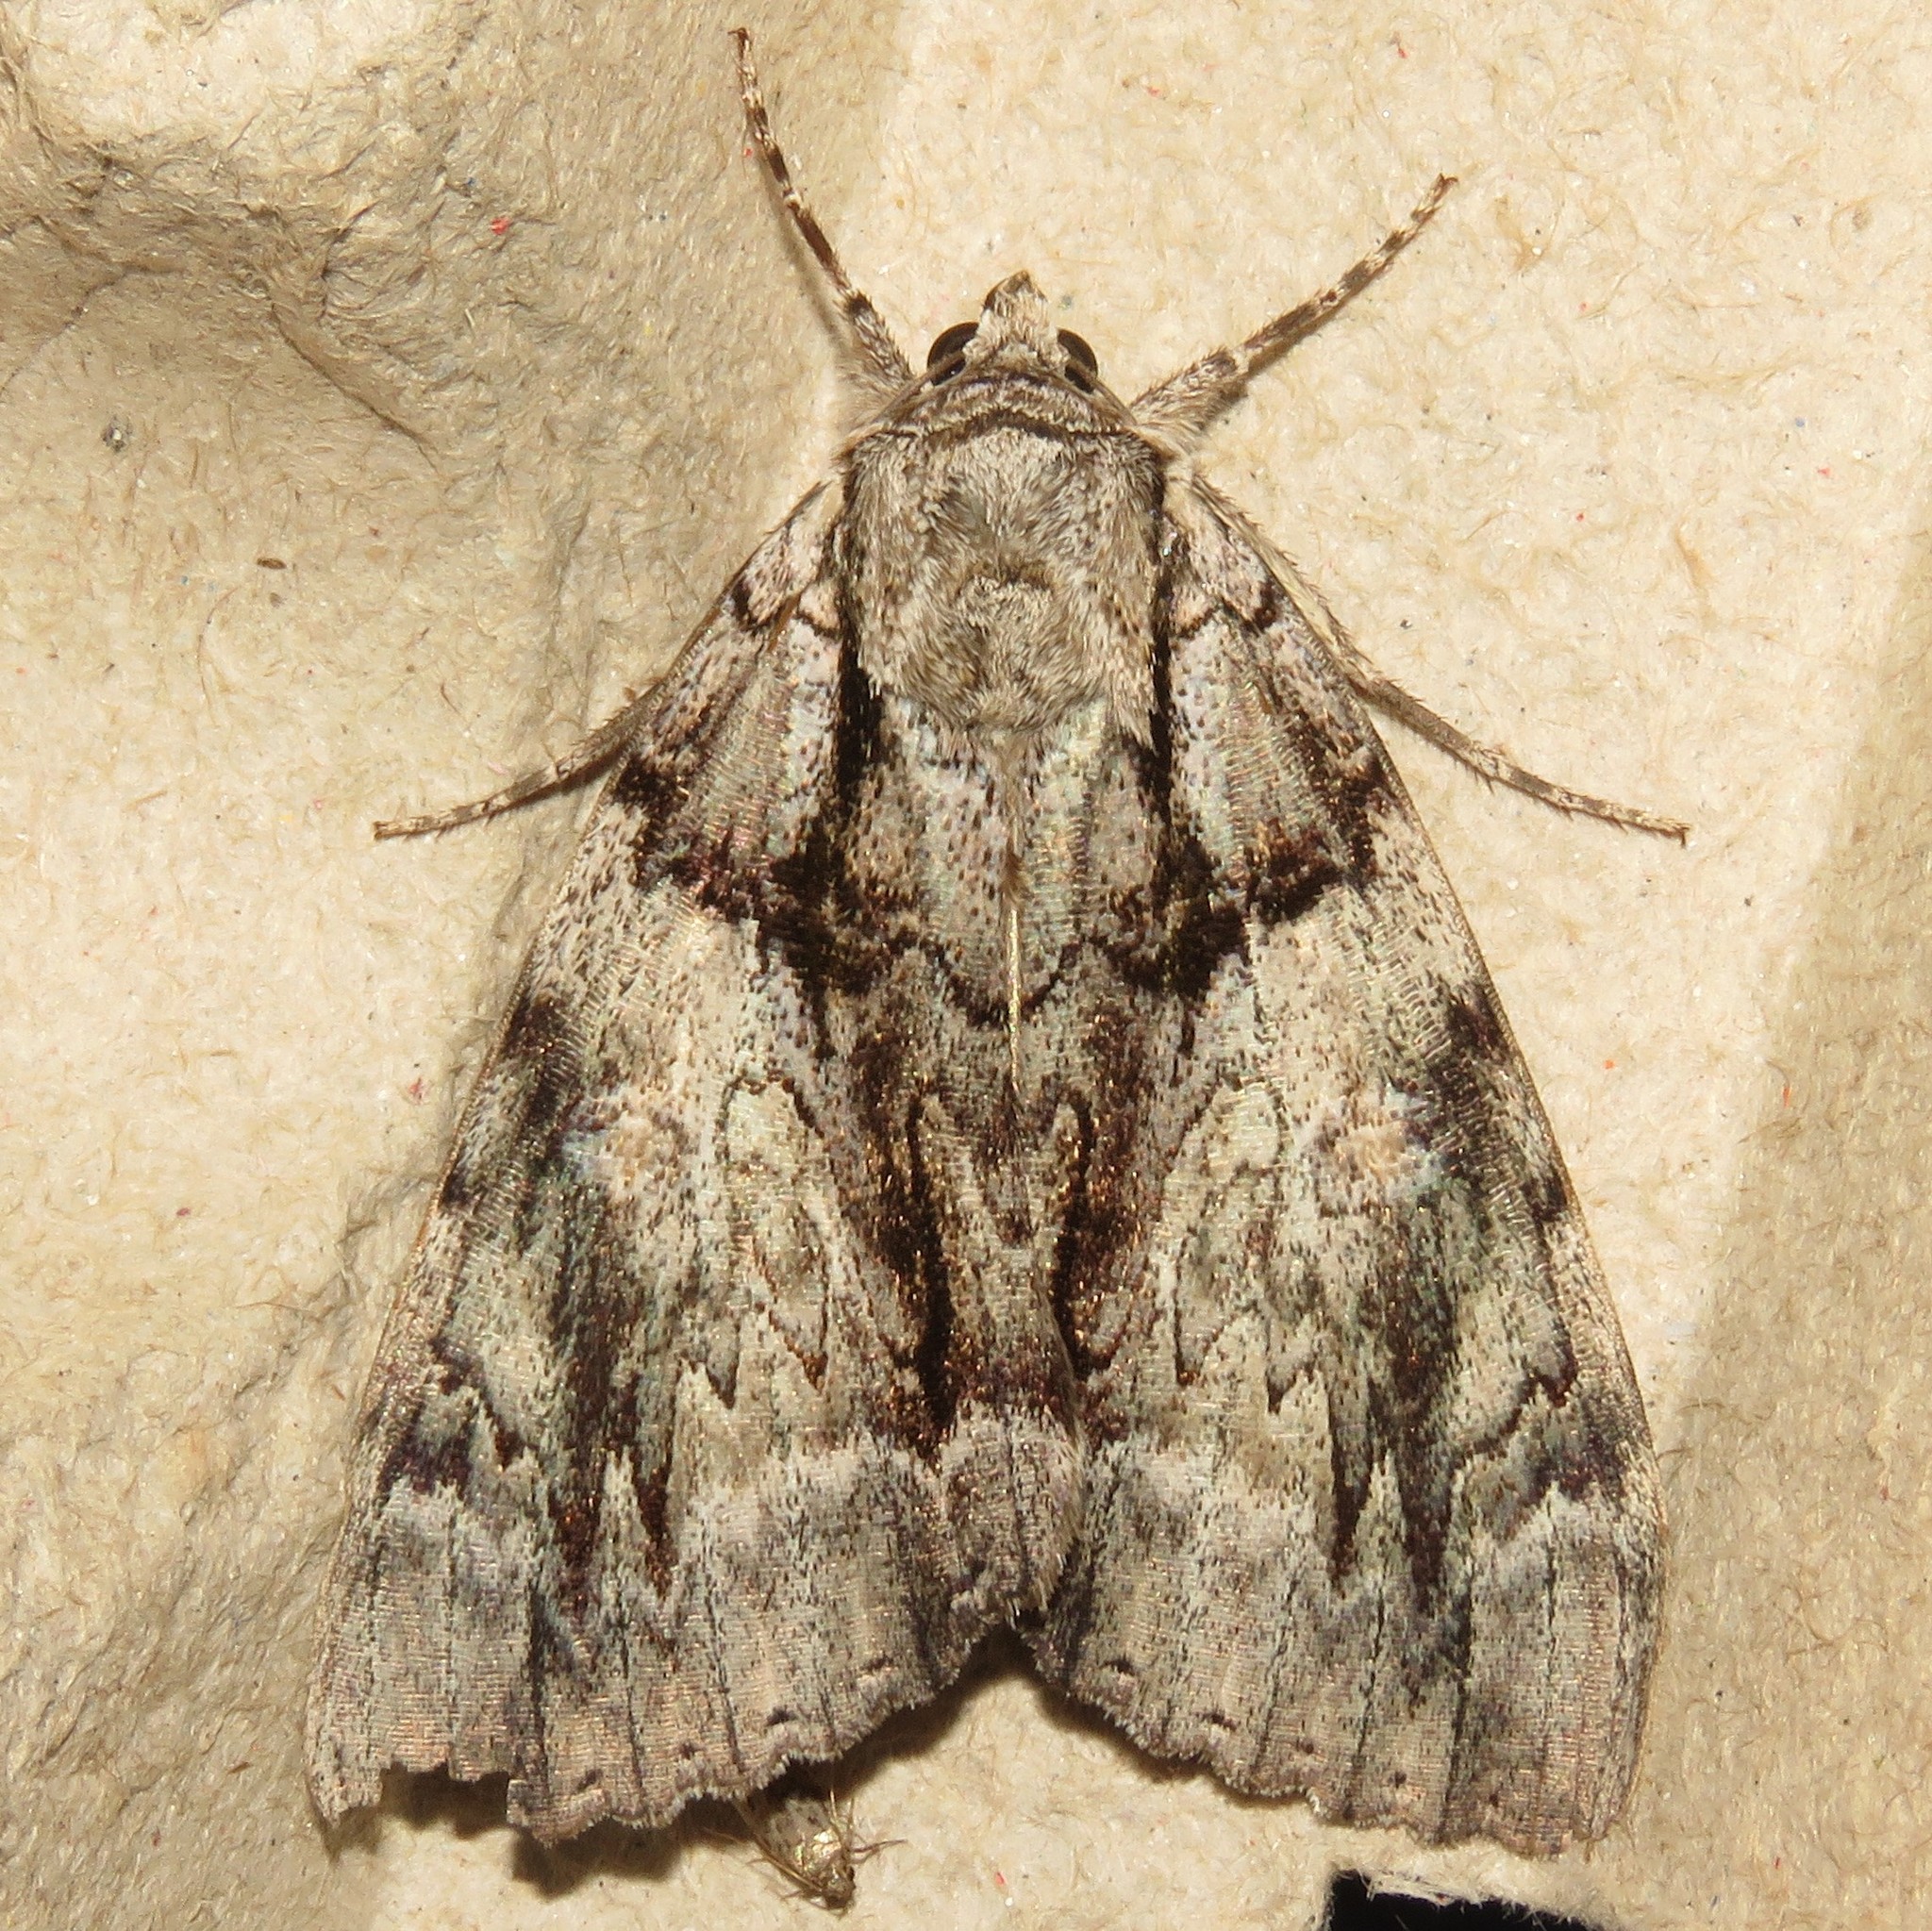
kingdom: Animalia
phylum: Arthropoda
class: Insecta
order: Lepidoptera
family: Erebidae
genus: Catocala
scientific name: Catocala vidua
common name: The widow
